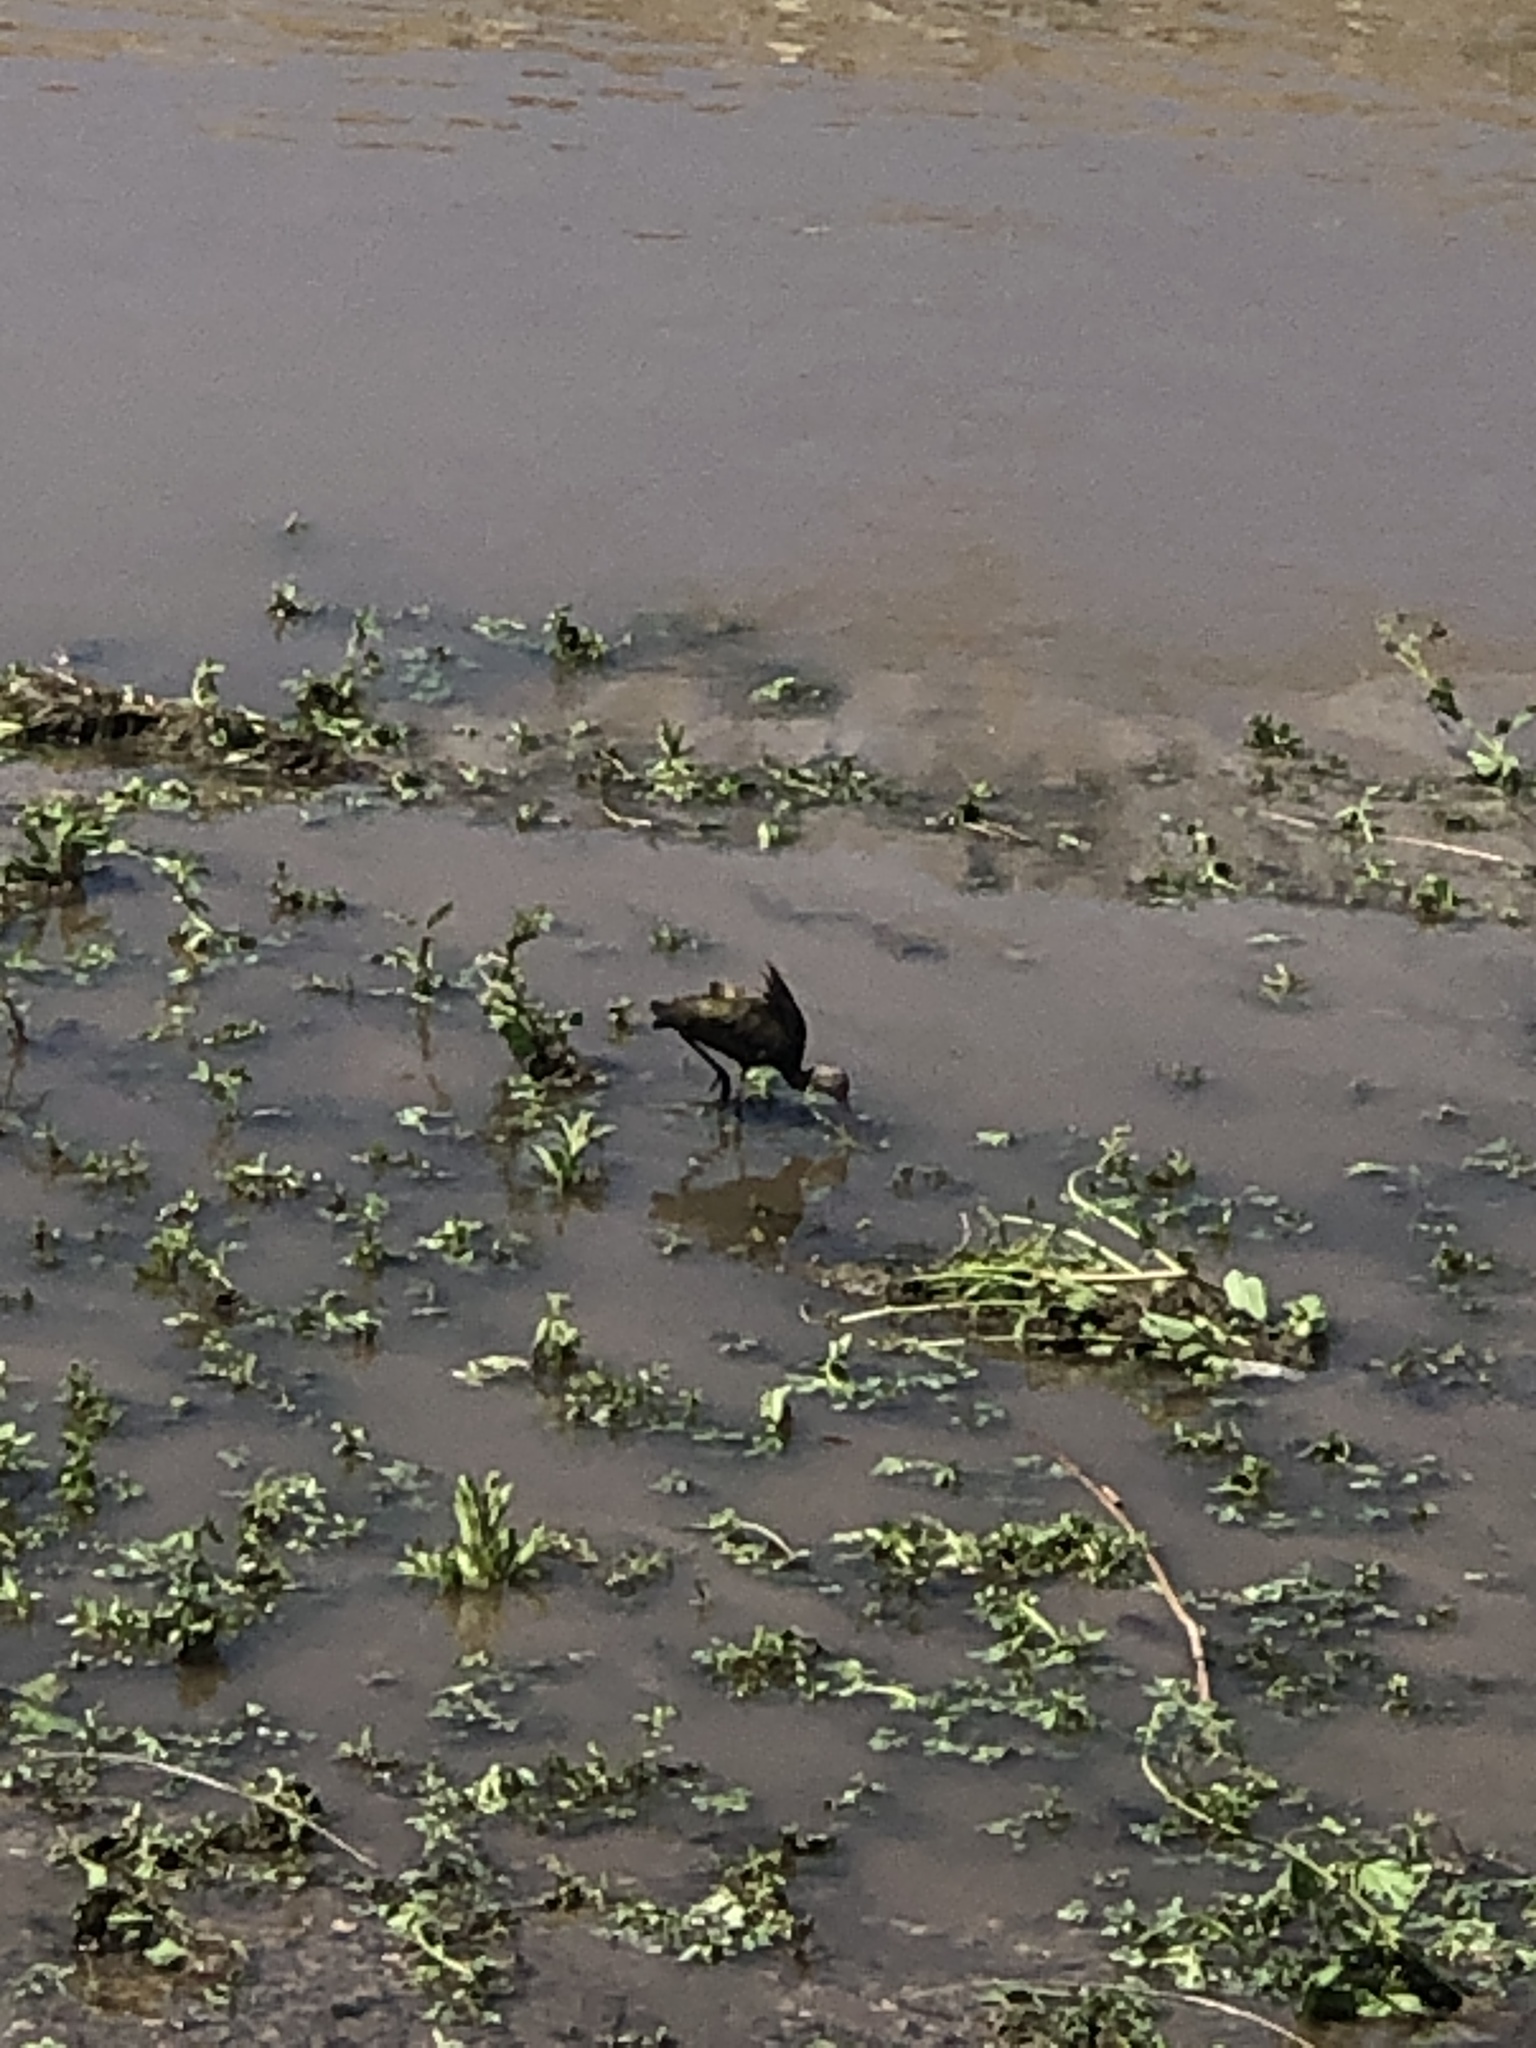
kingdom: Animalia
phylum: Chordata
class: Aves
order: Pelecaniformes
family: Threskiornithidae
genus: Plegadis
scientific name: Plegadis chihi
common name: White-faced ibis
